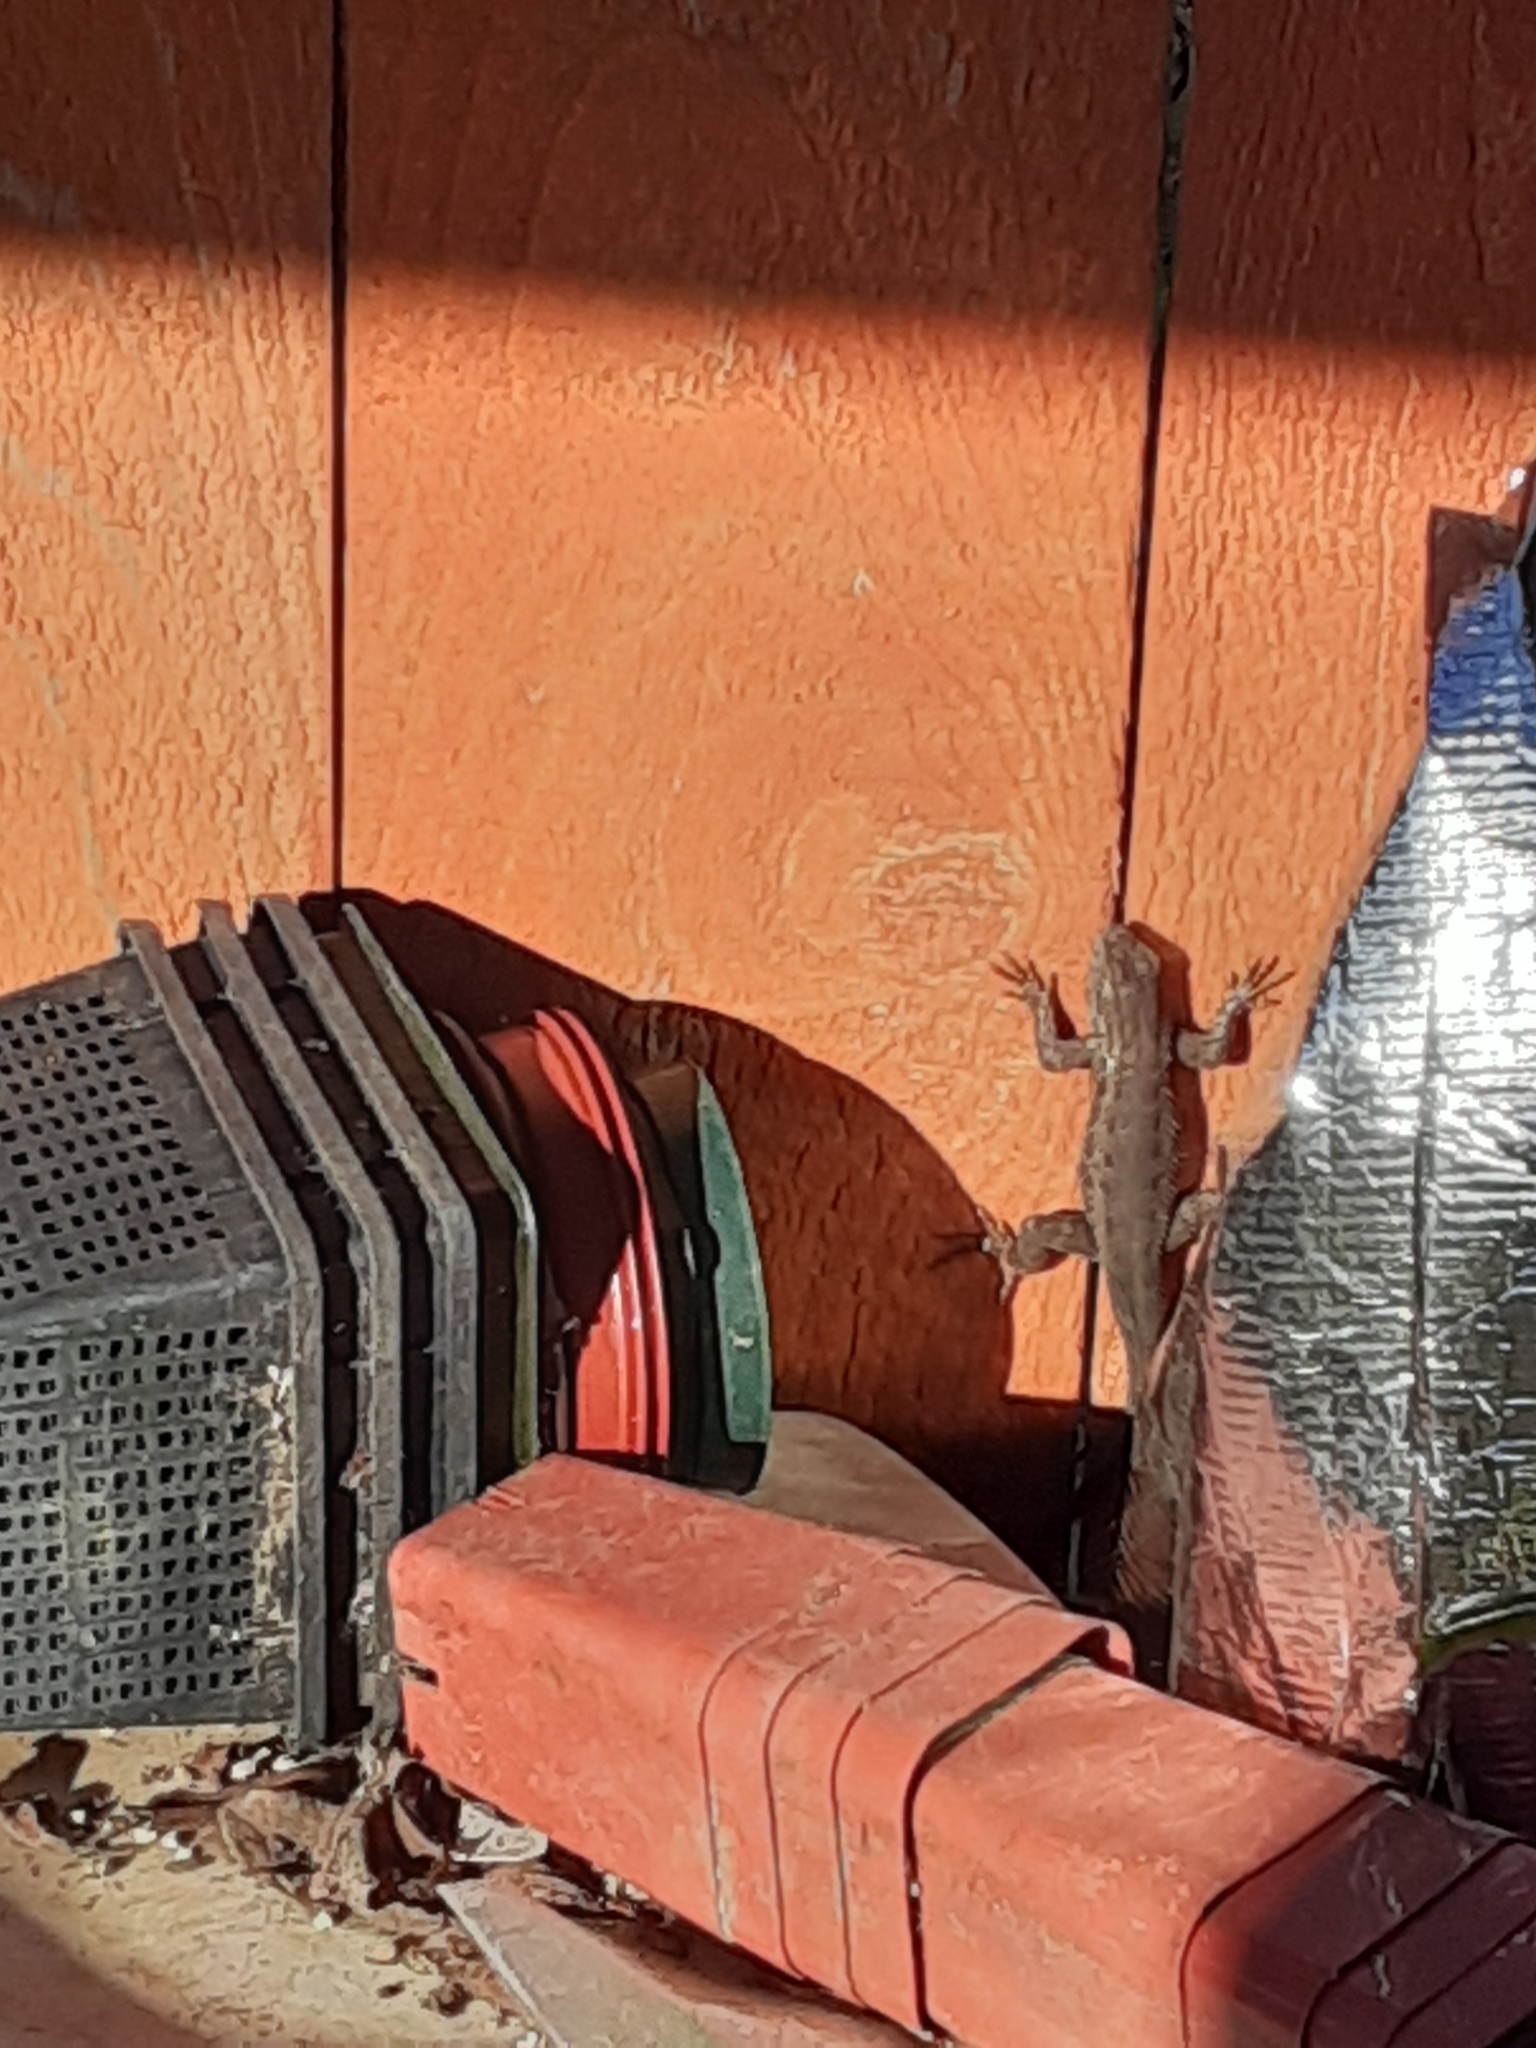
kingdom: Animalia
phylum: Chordata
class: Squamata
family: Phrynosomatidae
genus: Sceloporus
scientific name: Sceloporus occidentalis
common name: Western fence lizard
